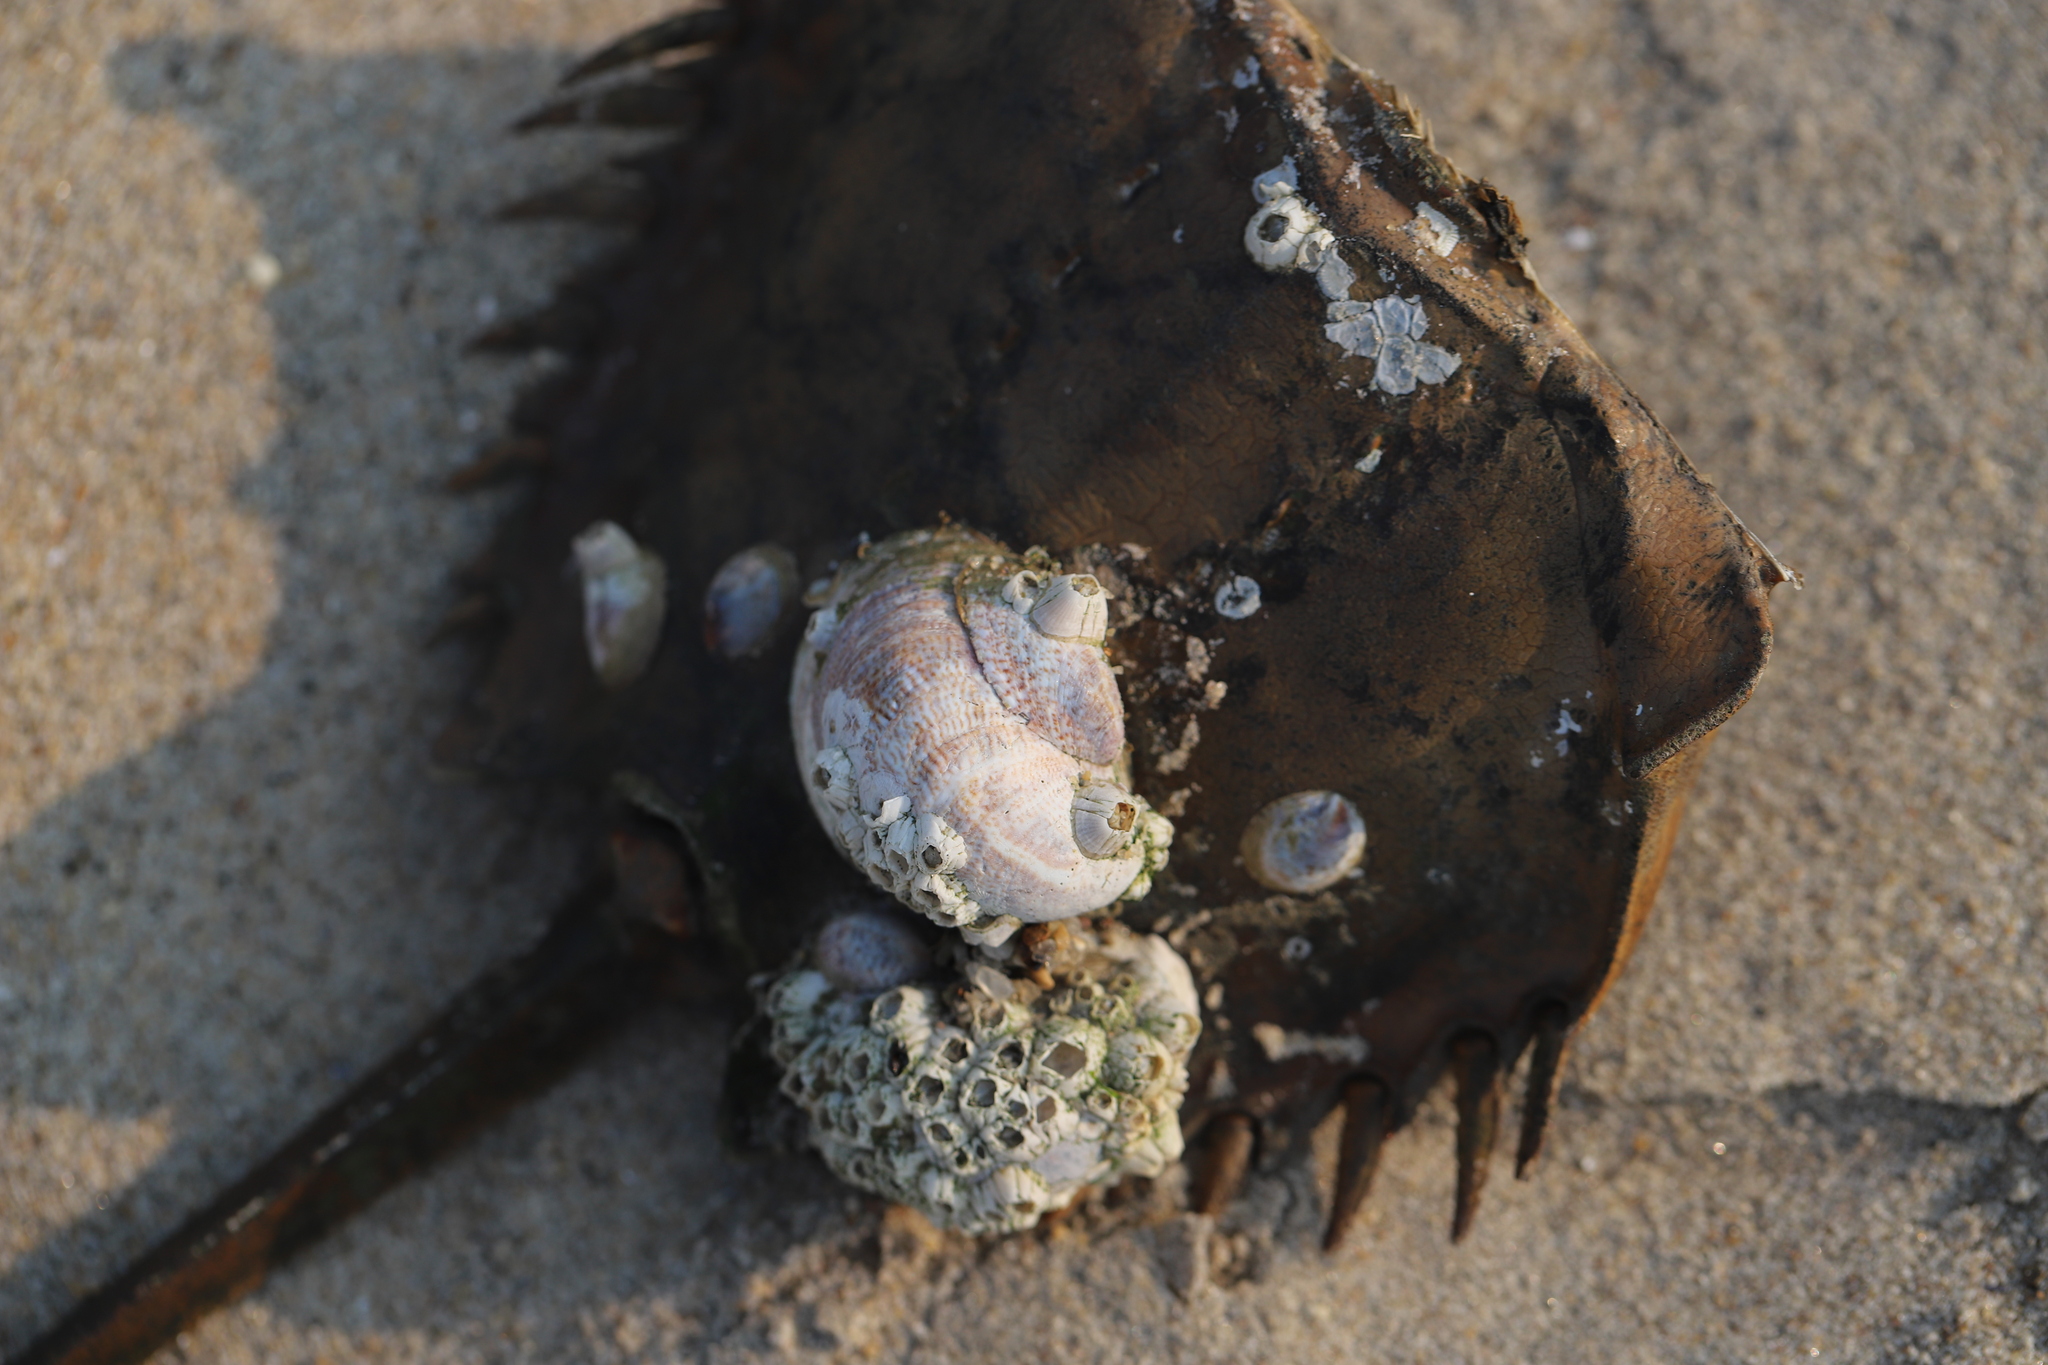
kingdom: Animalia
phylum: Arthropoda
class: Merostomata
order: Xiphosurida
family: Limulidae
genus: Limulus
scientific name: Limulus polyphemus
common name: Horseshoe crab
